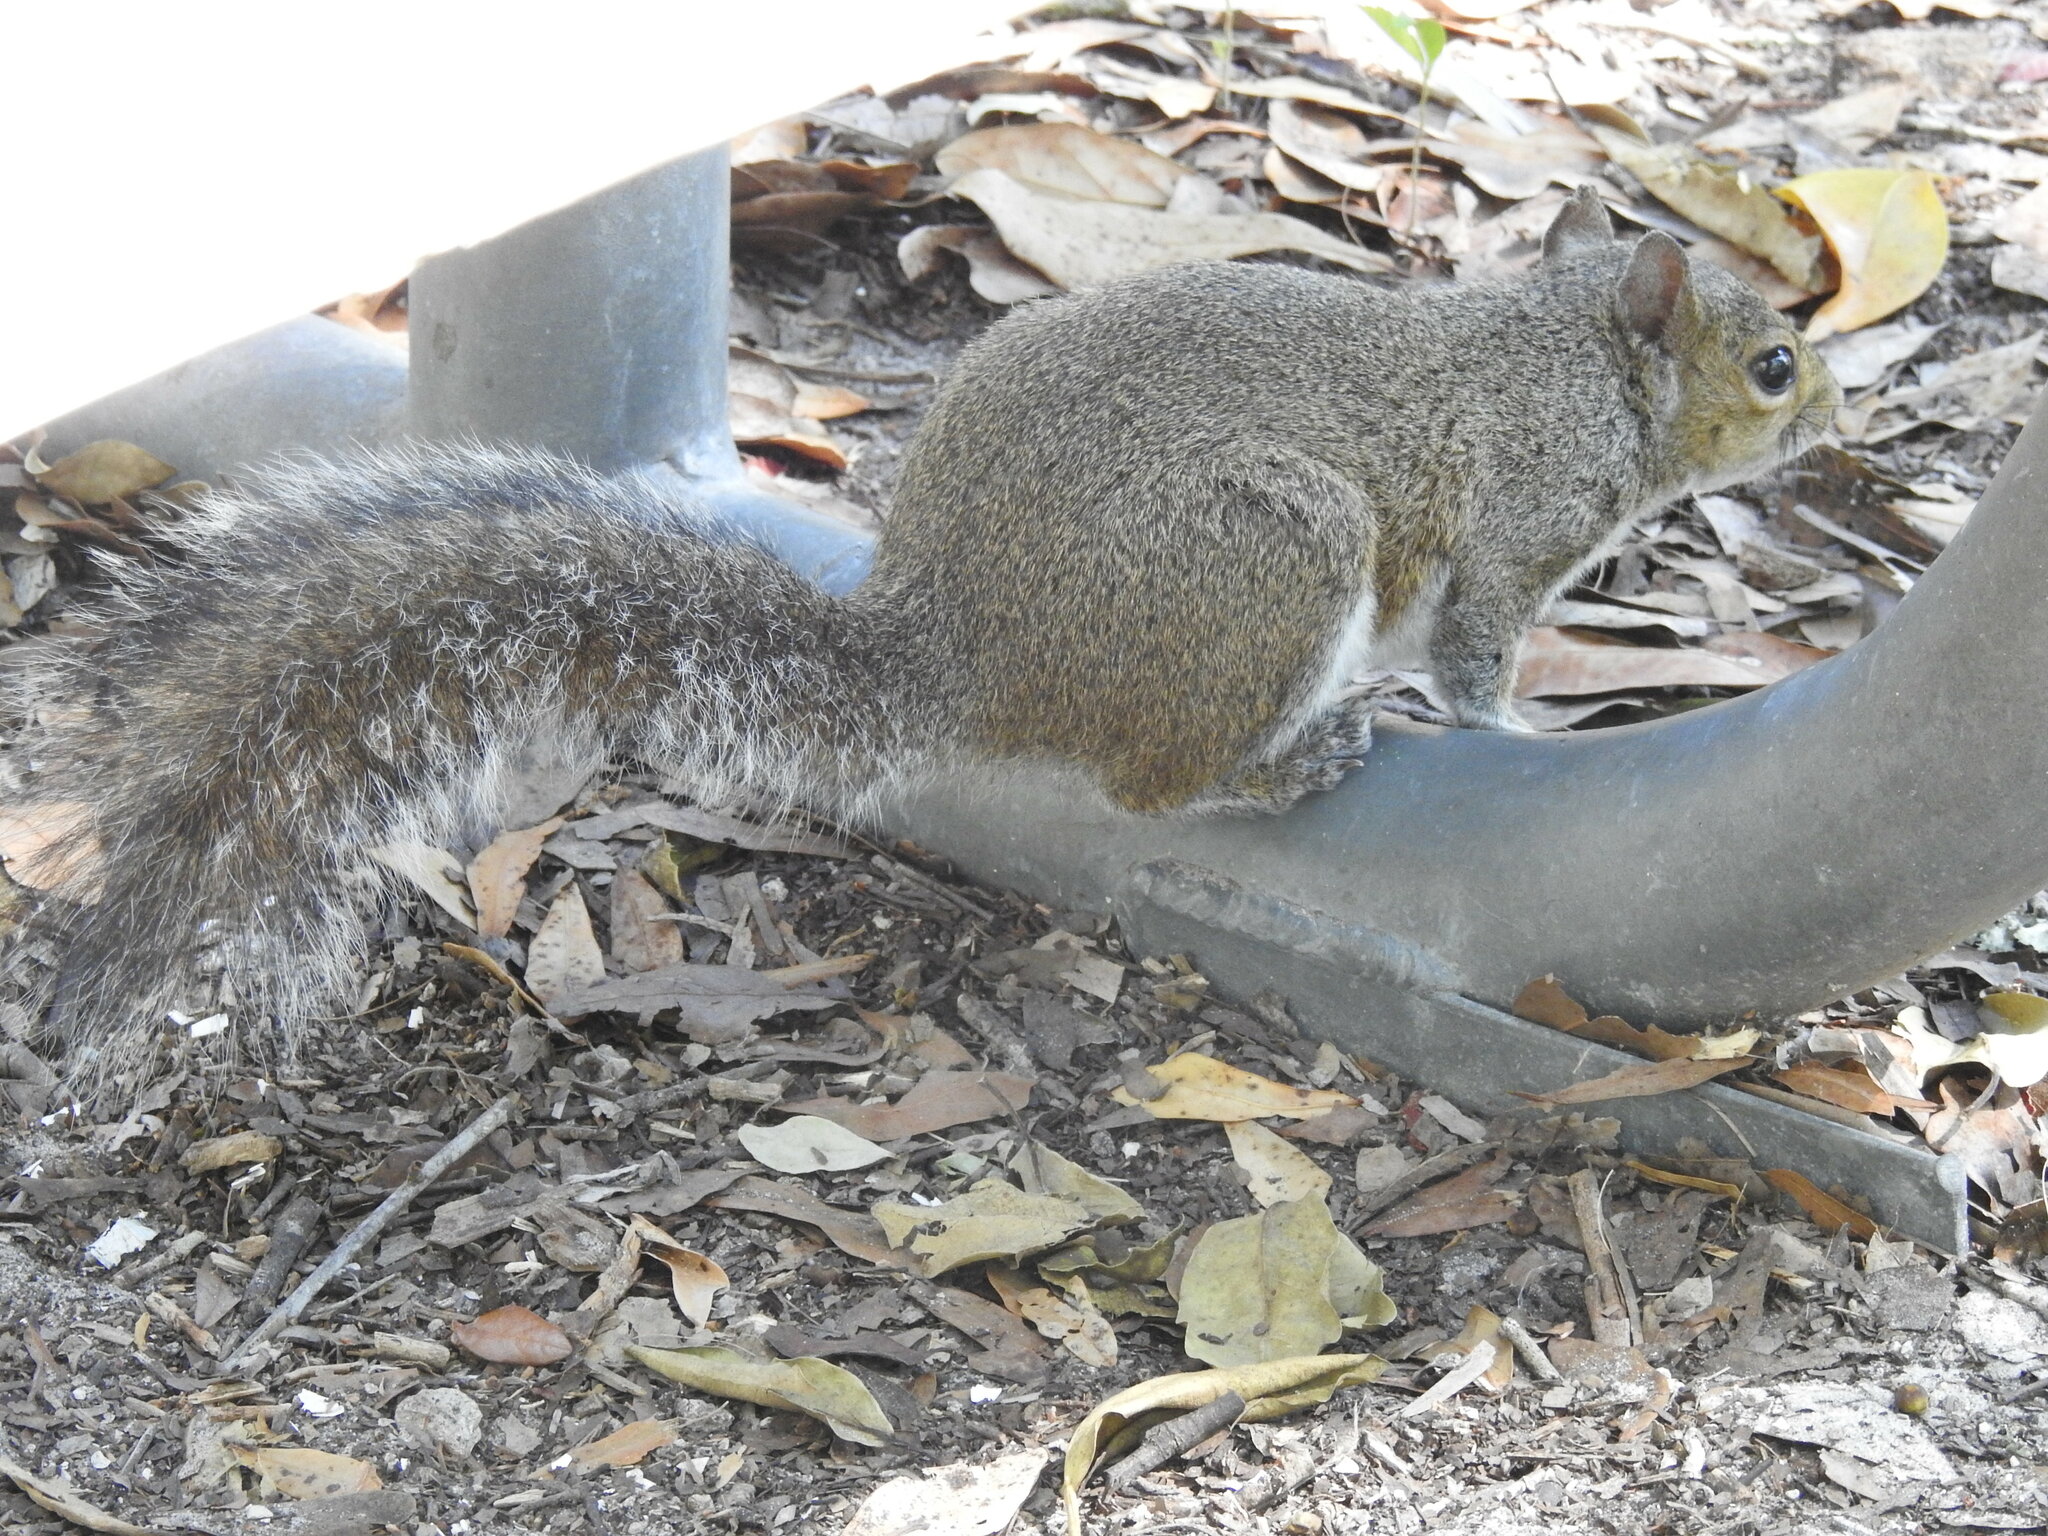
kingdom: Animalia
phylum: Chordata
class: Mammalia
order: Rodentia
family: Sciuridae
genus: Sciurus
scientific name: Sciurus carolinensis
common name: Eastern gray squirrel
